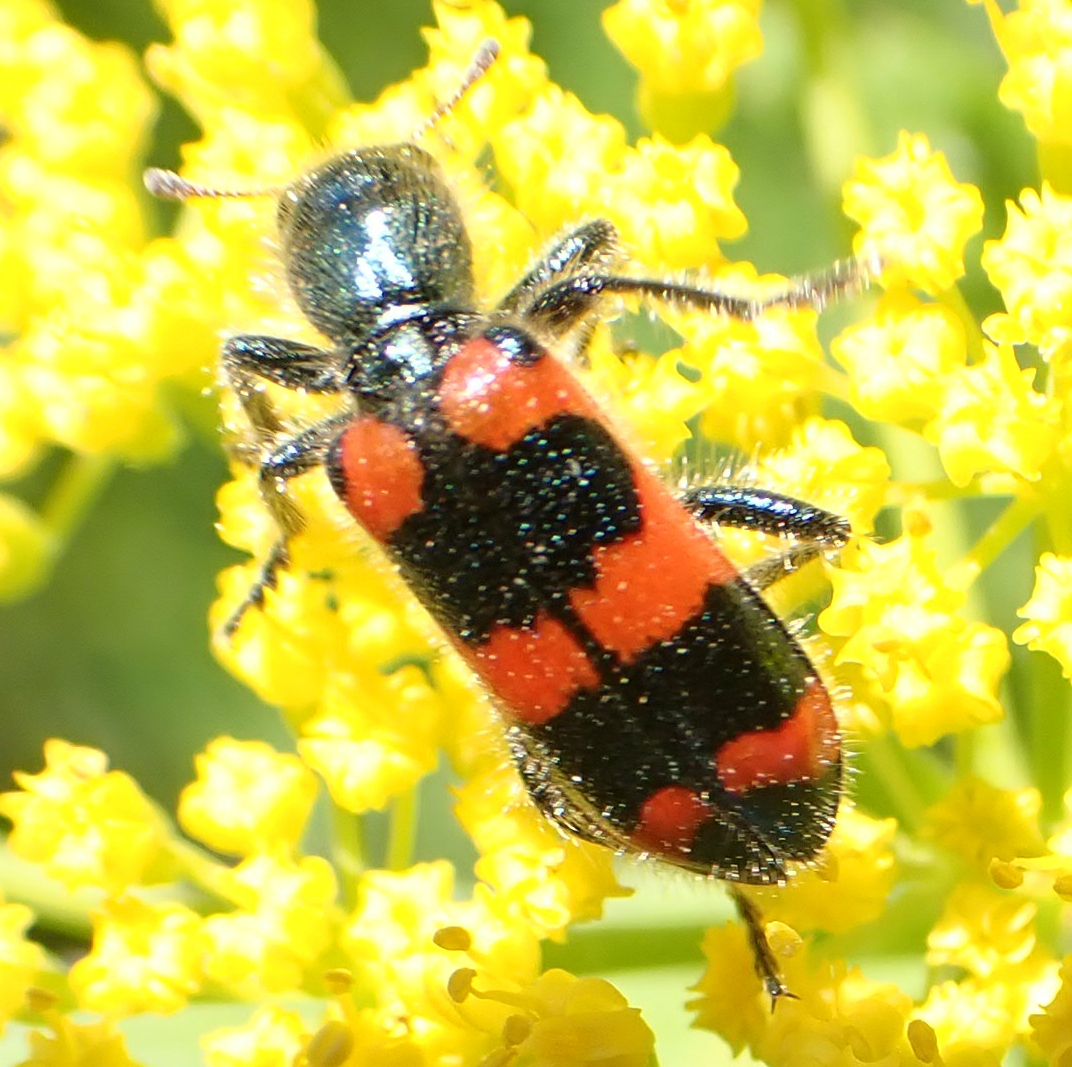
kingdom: Animalia
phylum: Arthropoda
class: Insecta
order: Coleoptera
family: Cleridae
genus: Trichodes
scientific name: Trichodes nutalli
